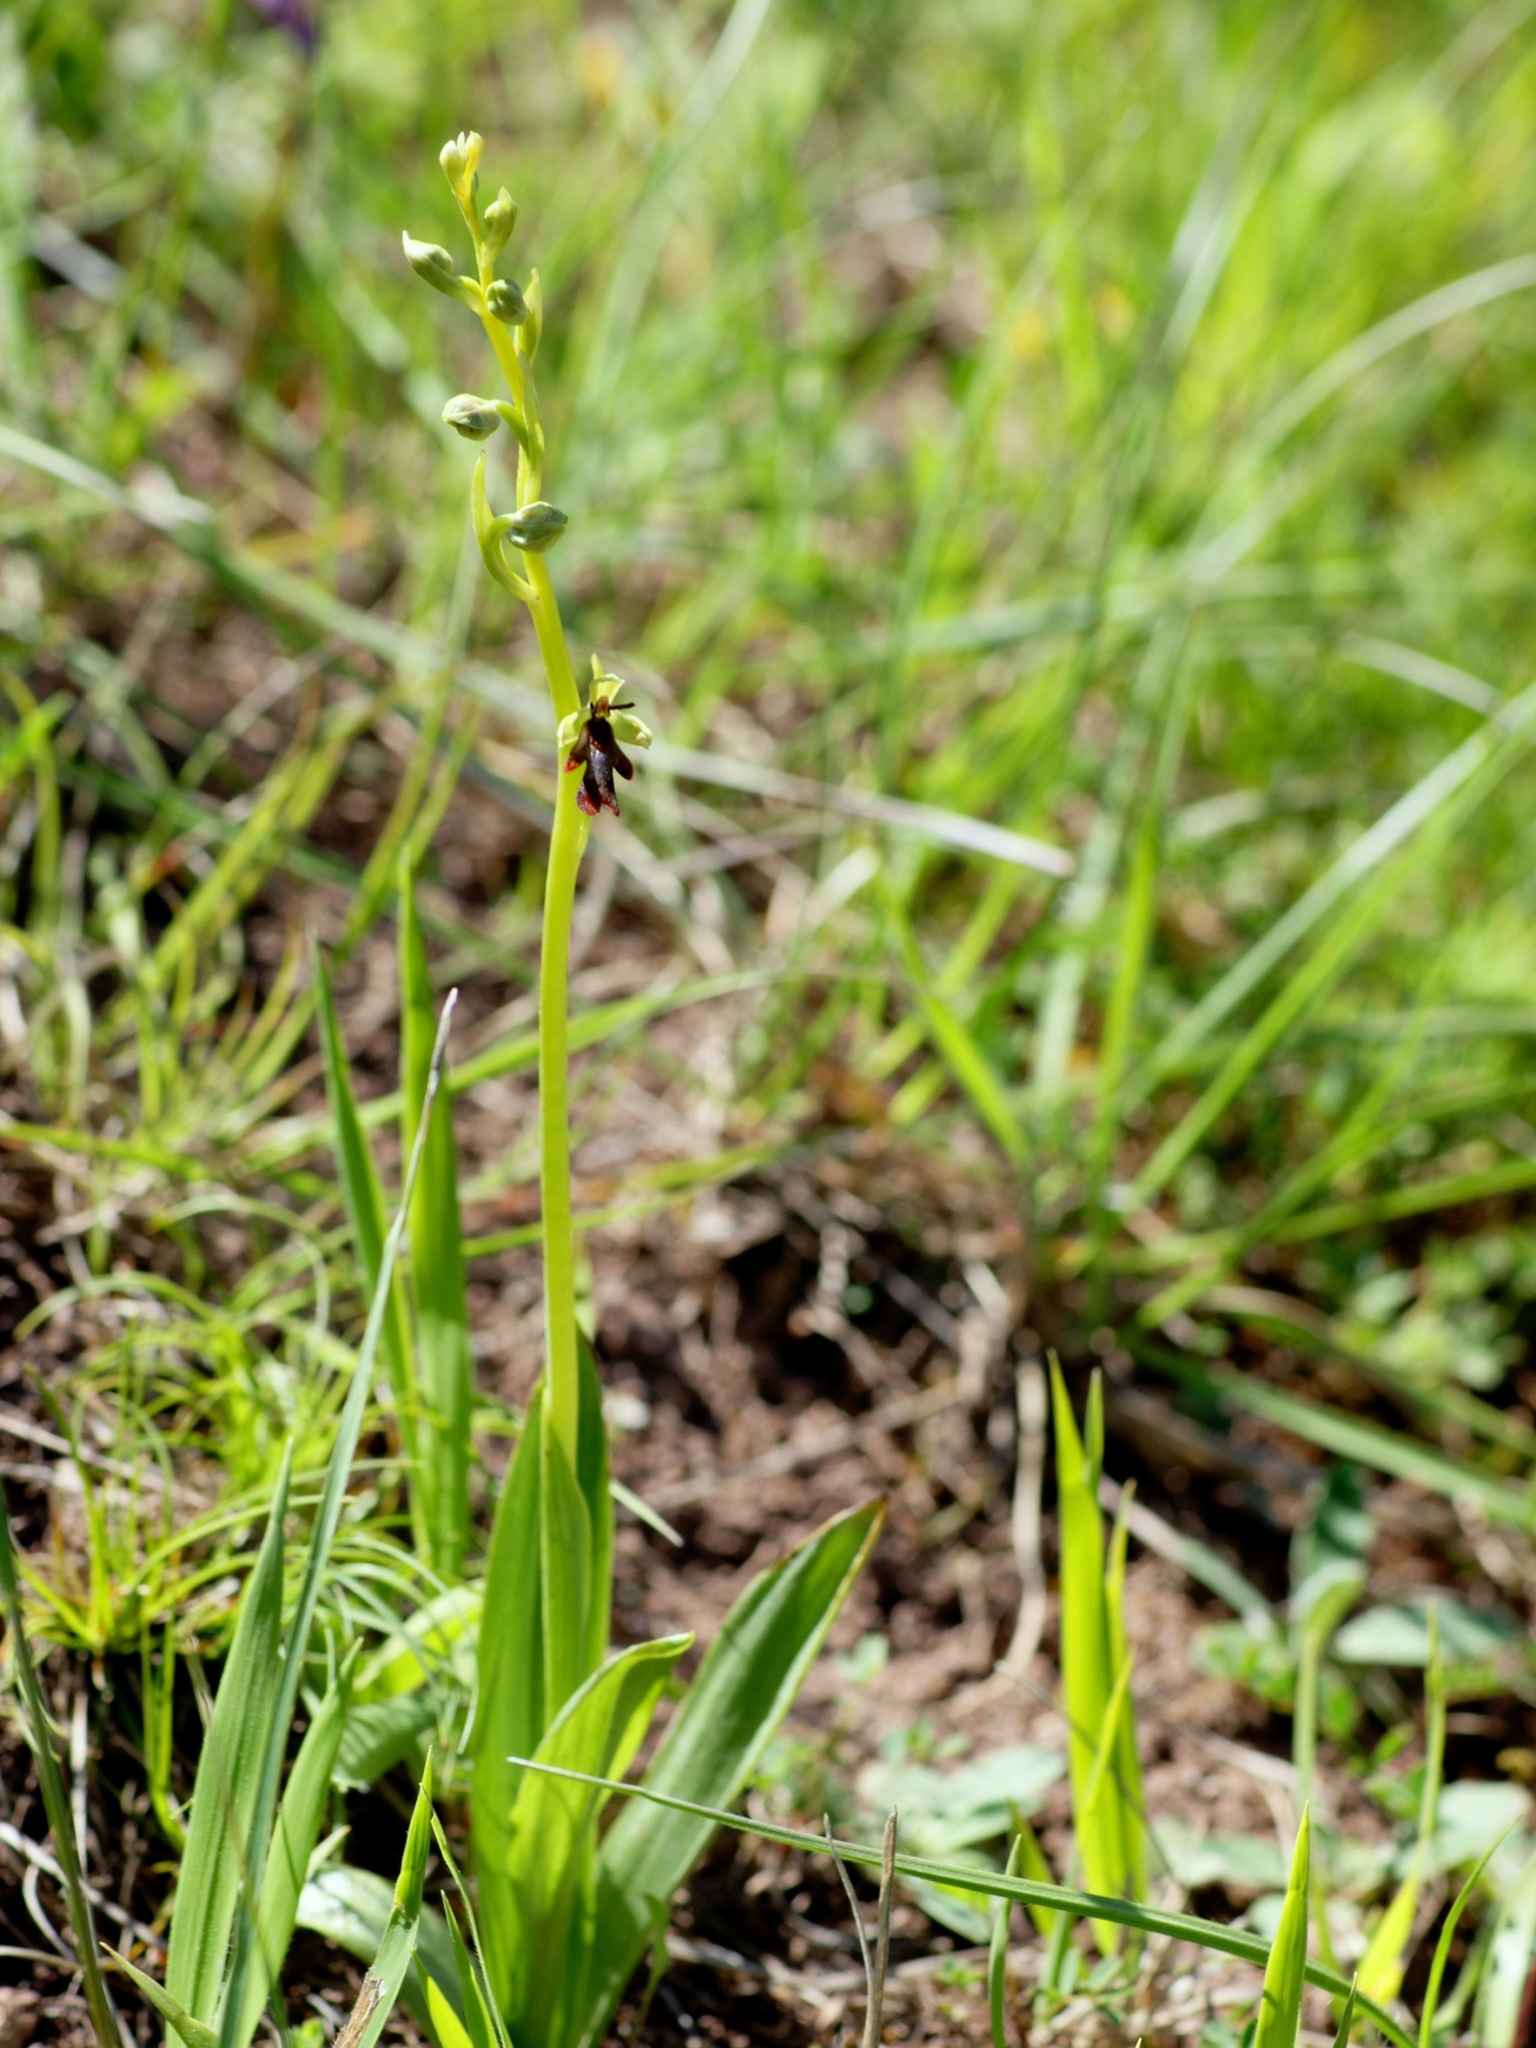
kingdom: Plantae
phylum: Tracheophyta
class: Liliopsida
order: Asparagales
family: Orchidaceae
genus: Ophrys
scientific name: Ophrys insectifera
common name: Fly orchid
